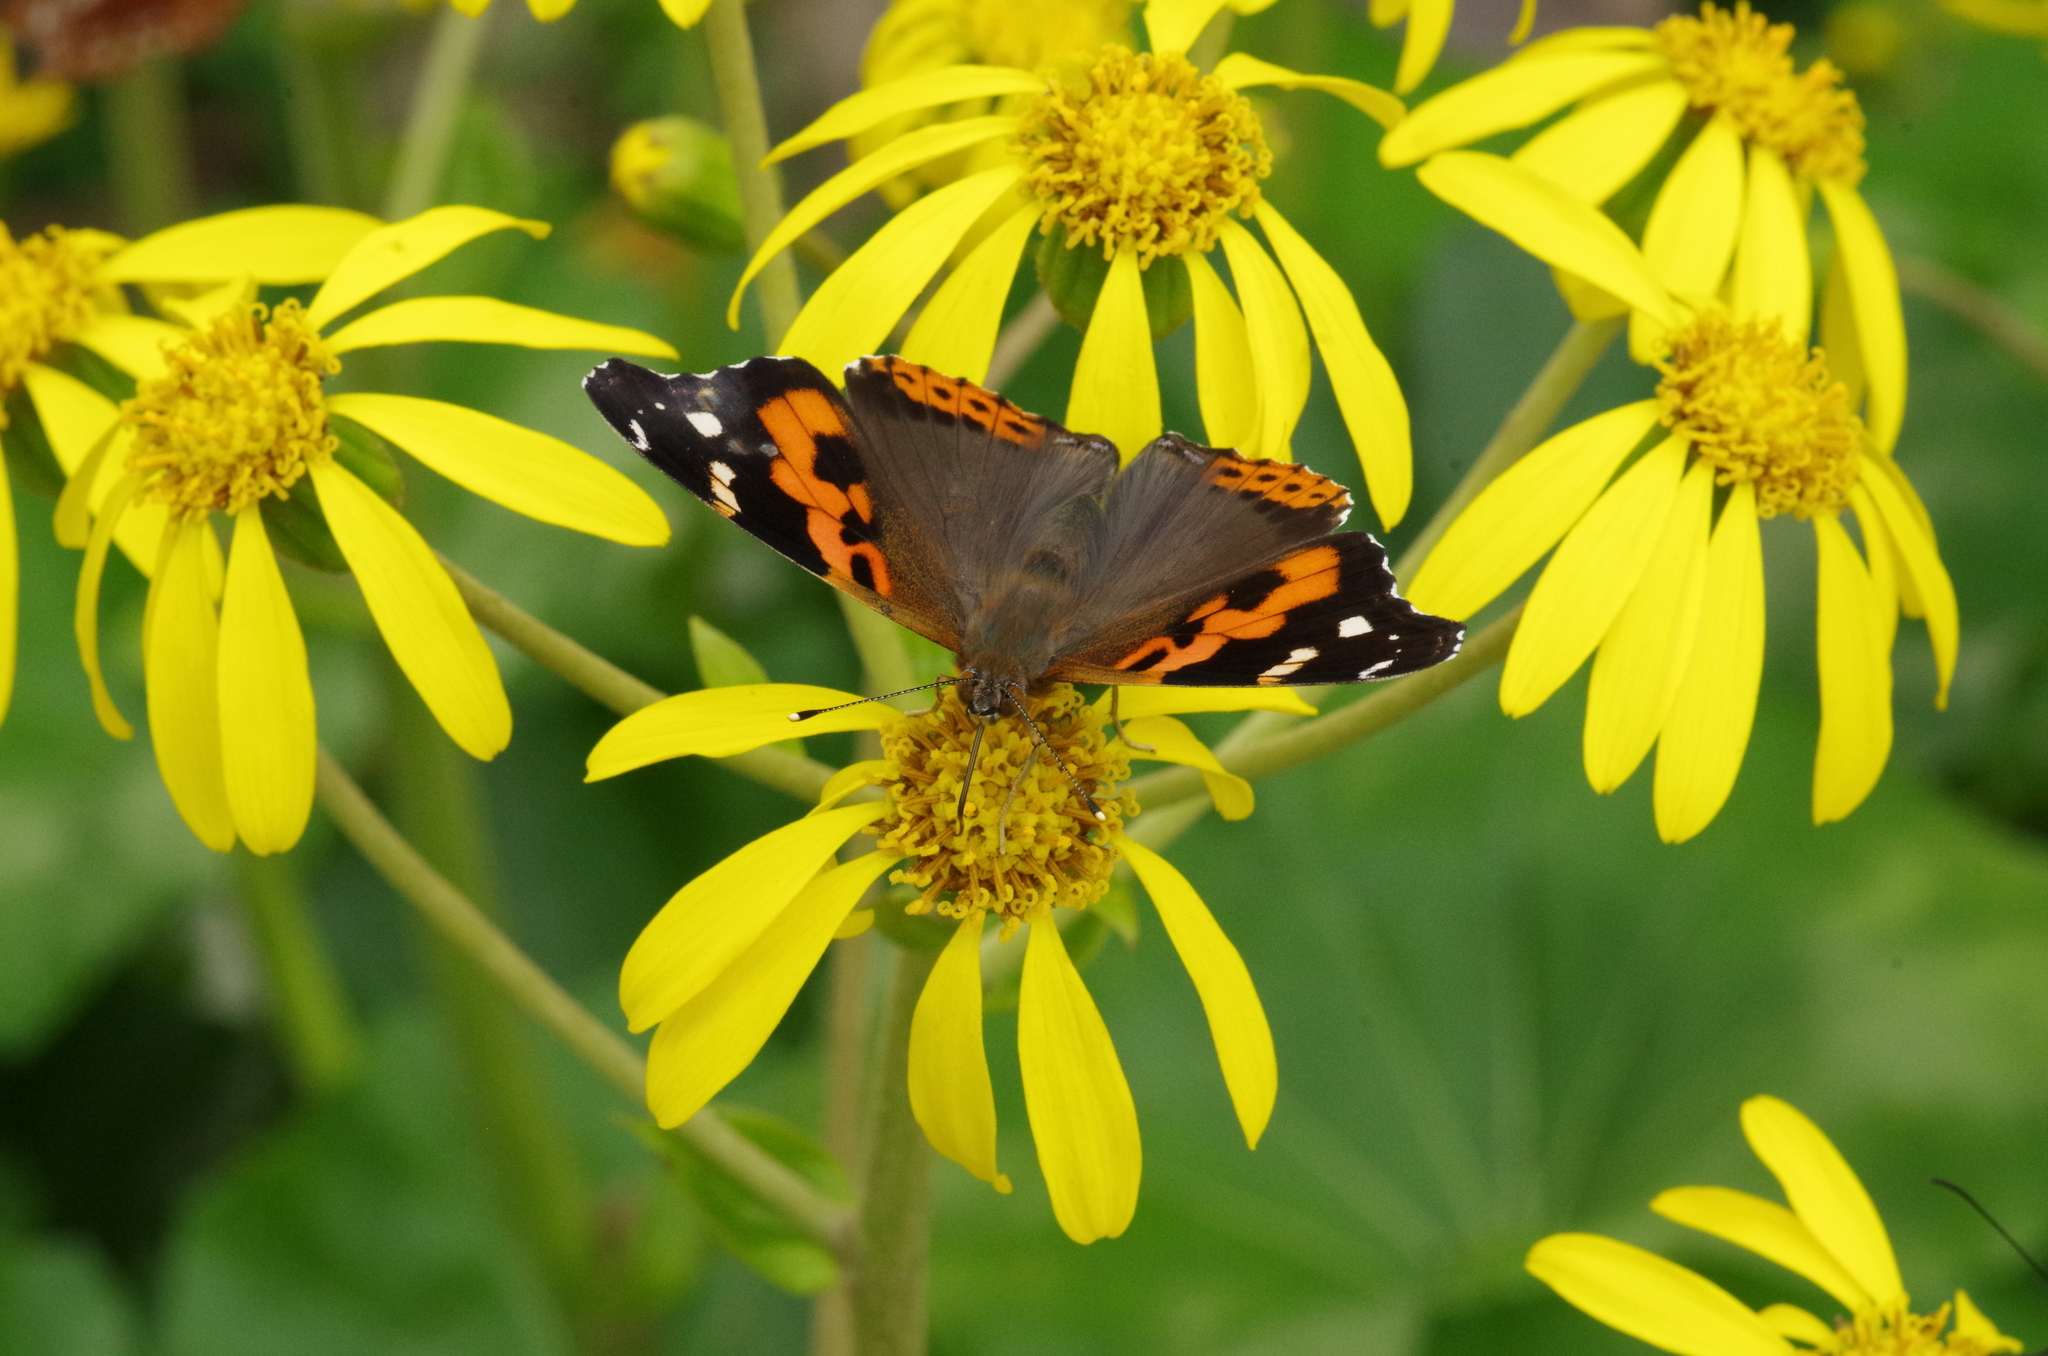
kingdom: Animalia
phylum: Arthropoda
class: Insecta
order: Lepidoptera
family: Nymphalidae
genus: Vanessa
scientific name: Vanessa indica
